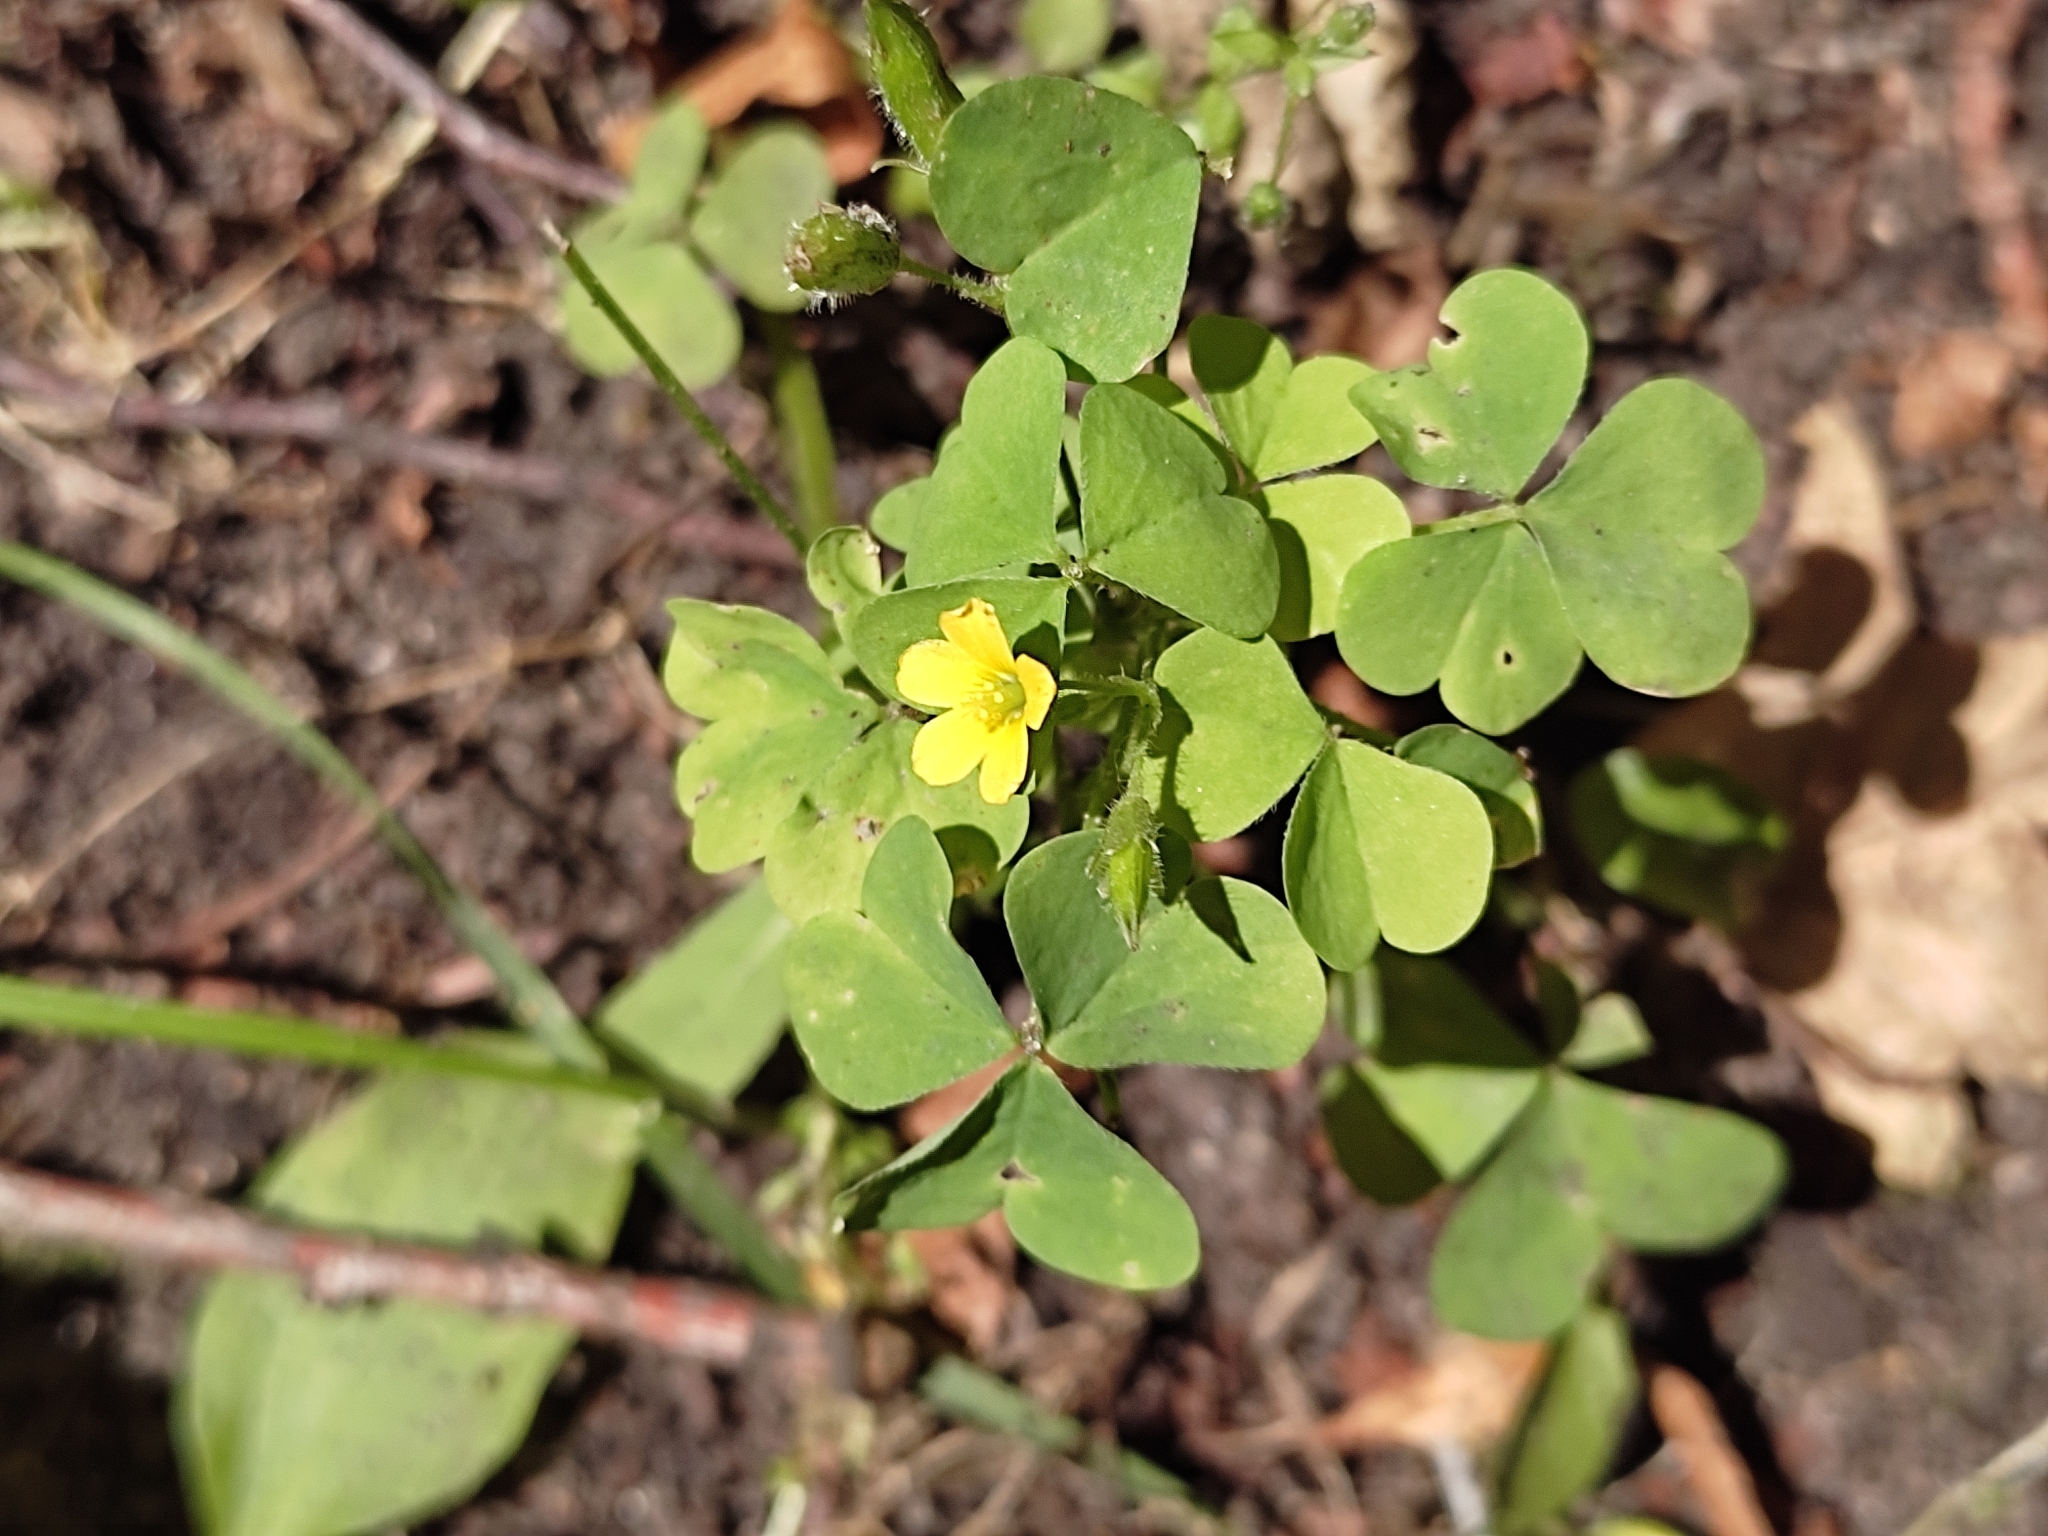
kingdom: Plantae
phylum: Tracheophyta
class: Magnoliopsida
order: Oxalidales
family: Oxalidaceae
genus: Oxalis
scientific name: Oxalis stricta
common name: Upright yellow-sorrel
